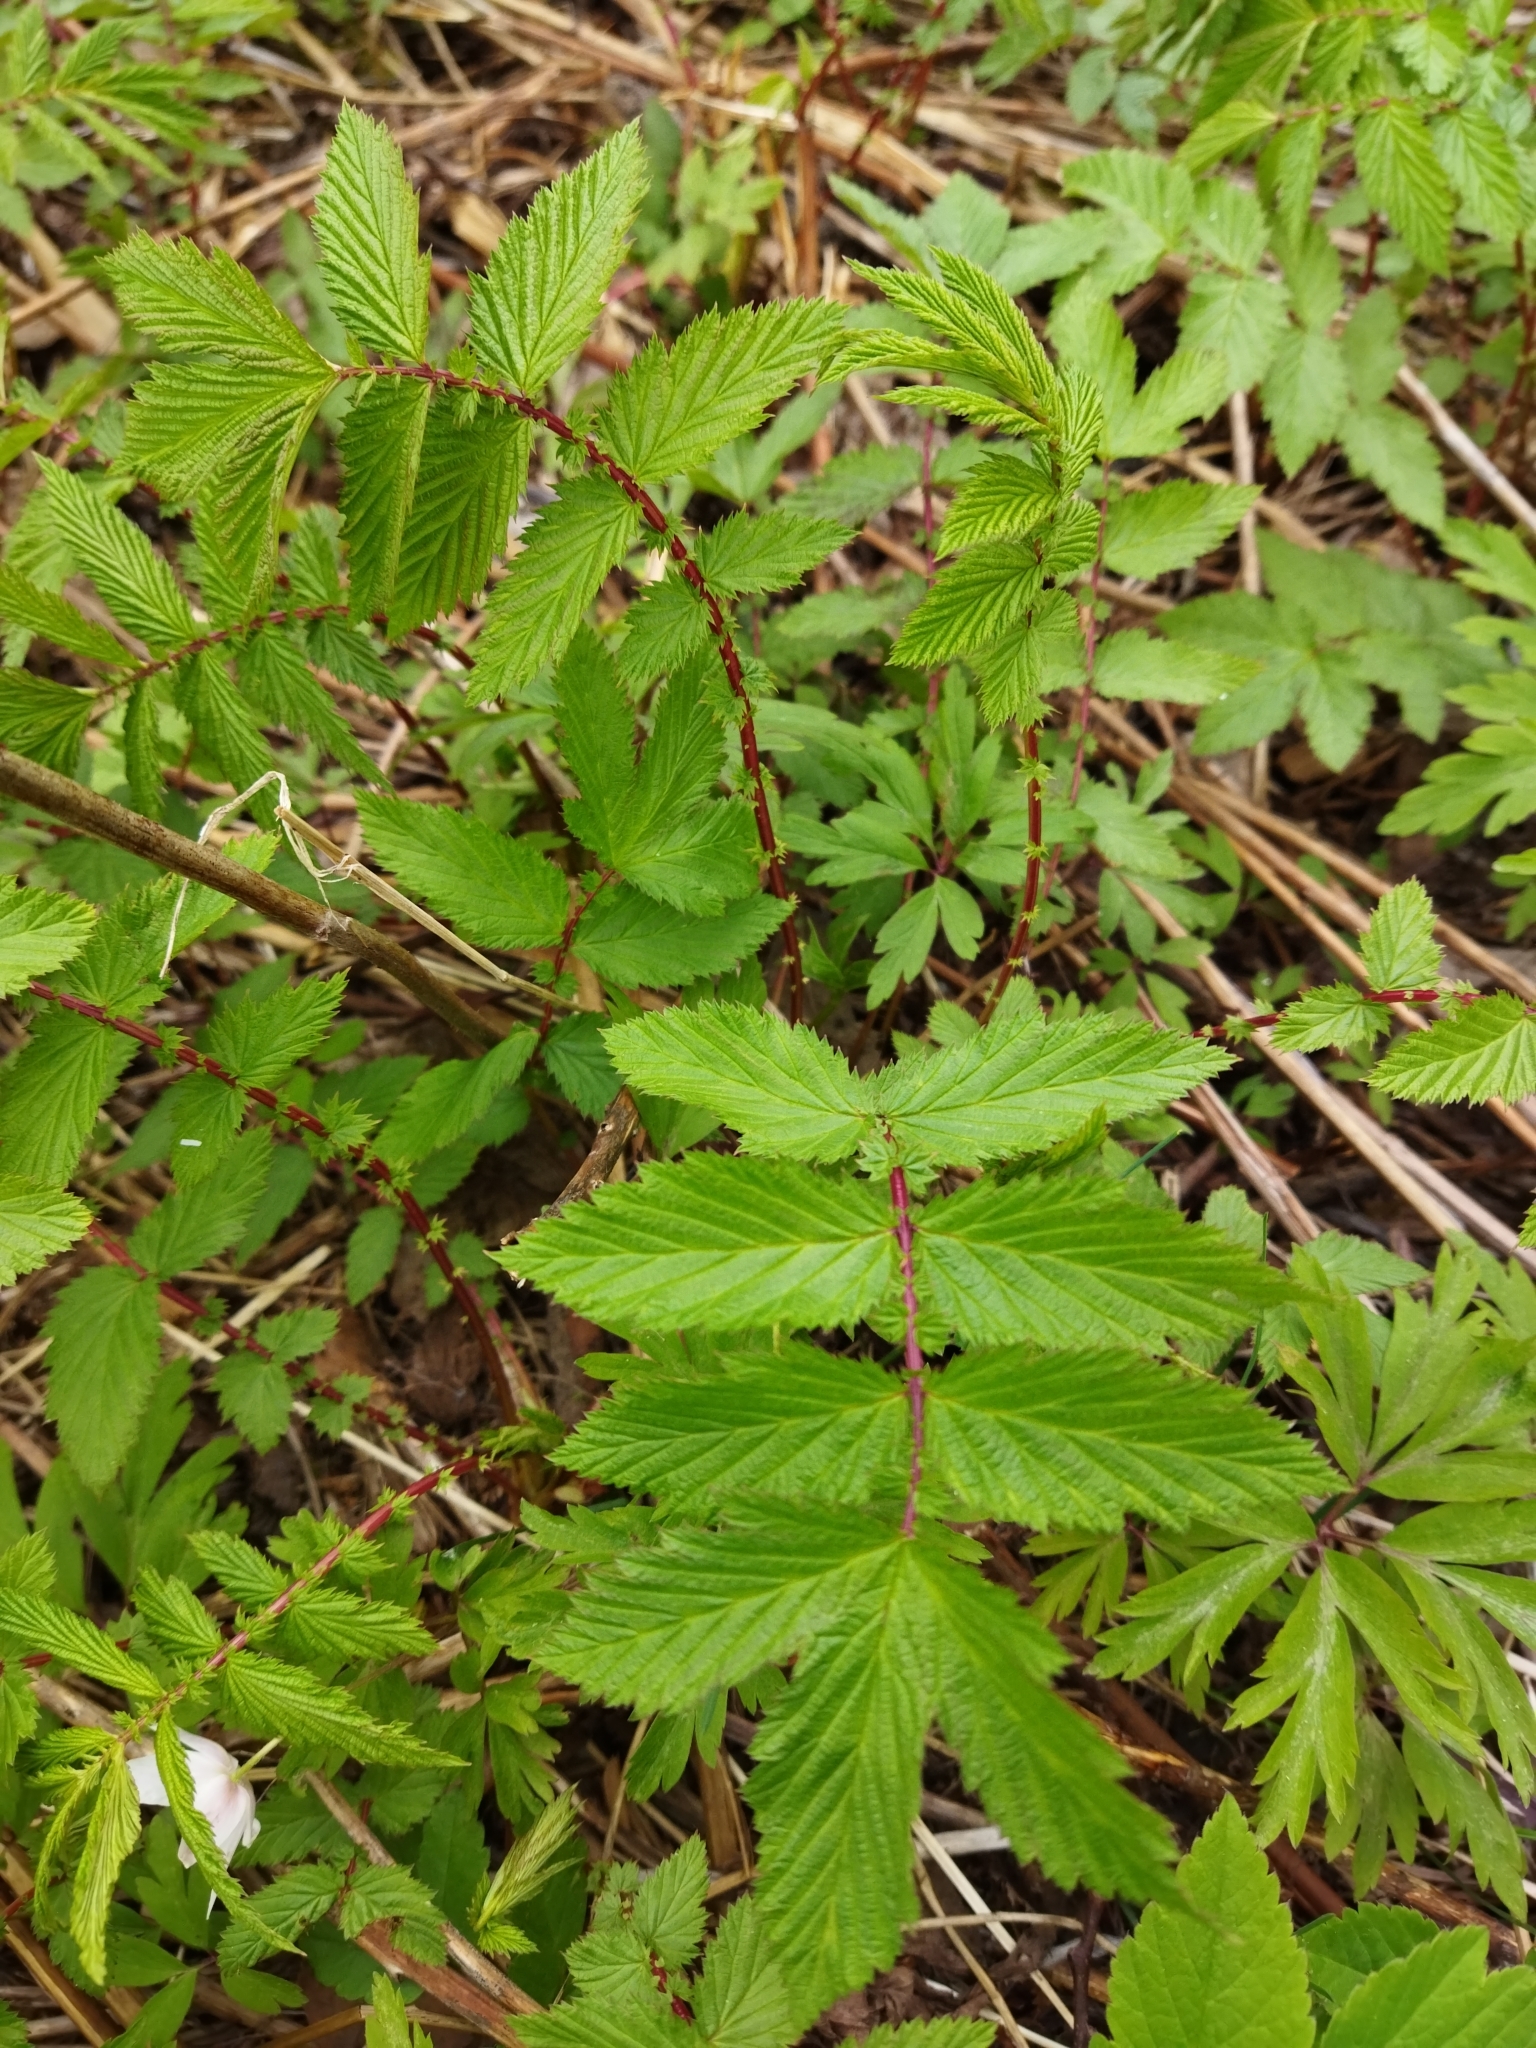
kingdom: Plantae
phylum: Tracheophyta
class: Magnoliopsida
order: Rosales
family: Rosaceae
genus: Filipendula
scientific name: Filipendula ulmaria
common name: Meadowsweet
